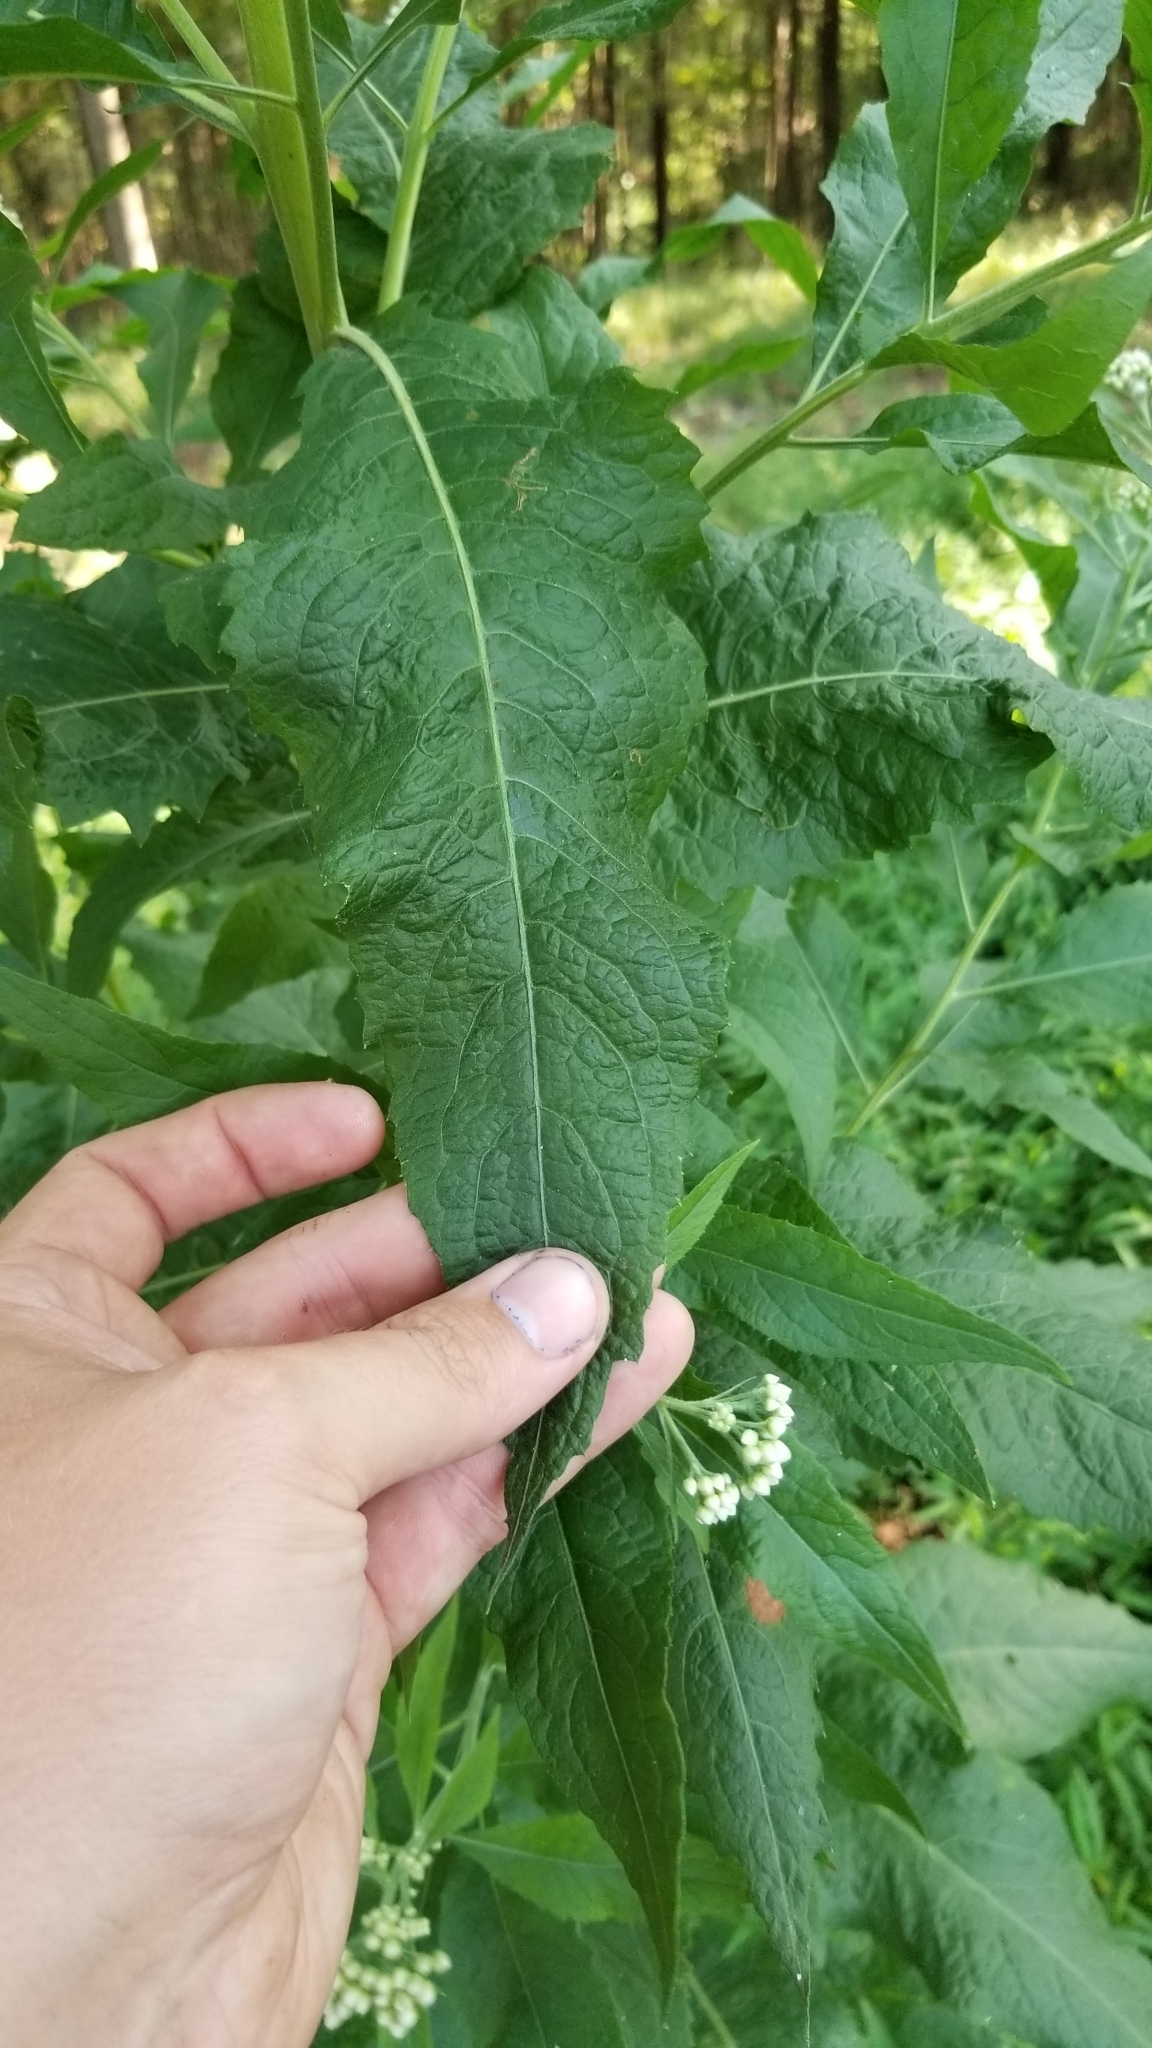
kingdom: Plantae
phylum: Tracheophyta
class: Magnoliopsida
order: Asterales
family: Asteraceae
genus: Pluchea
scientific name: Pluchea camphorata
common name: Camphor pluchea
